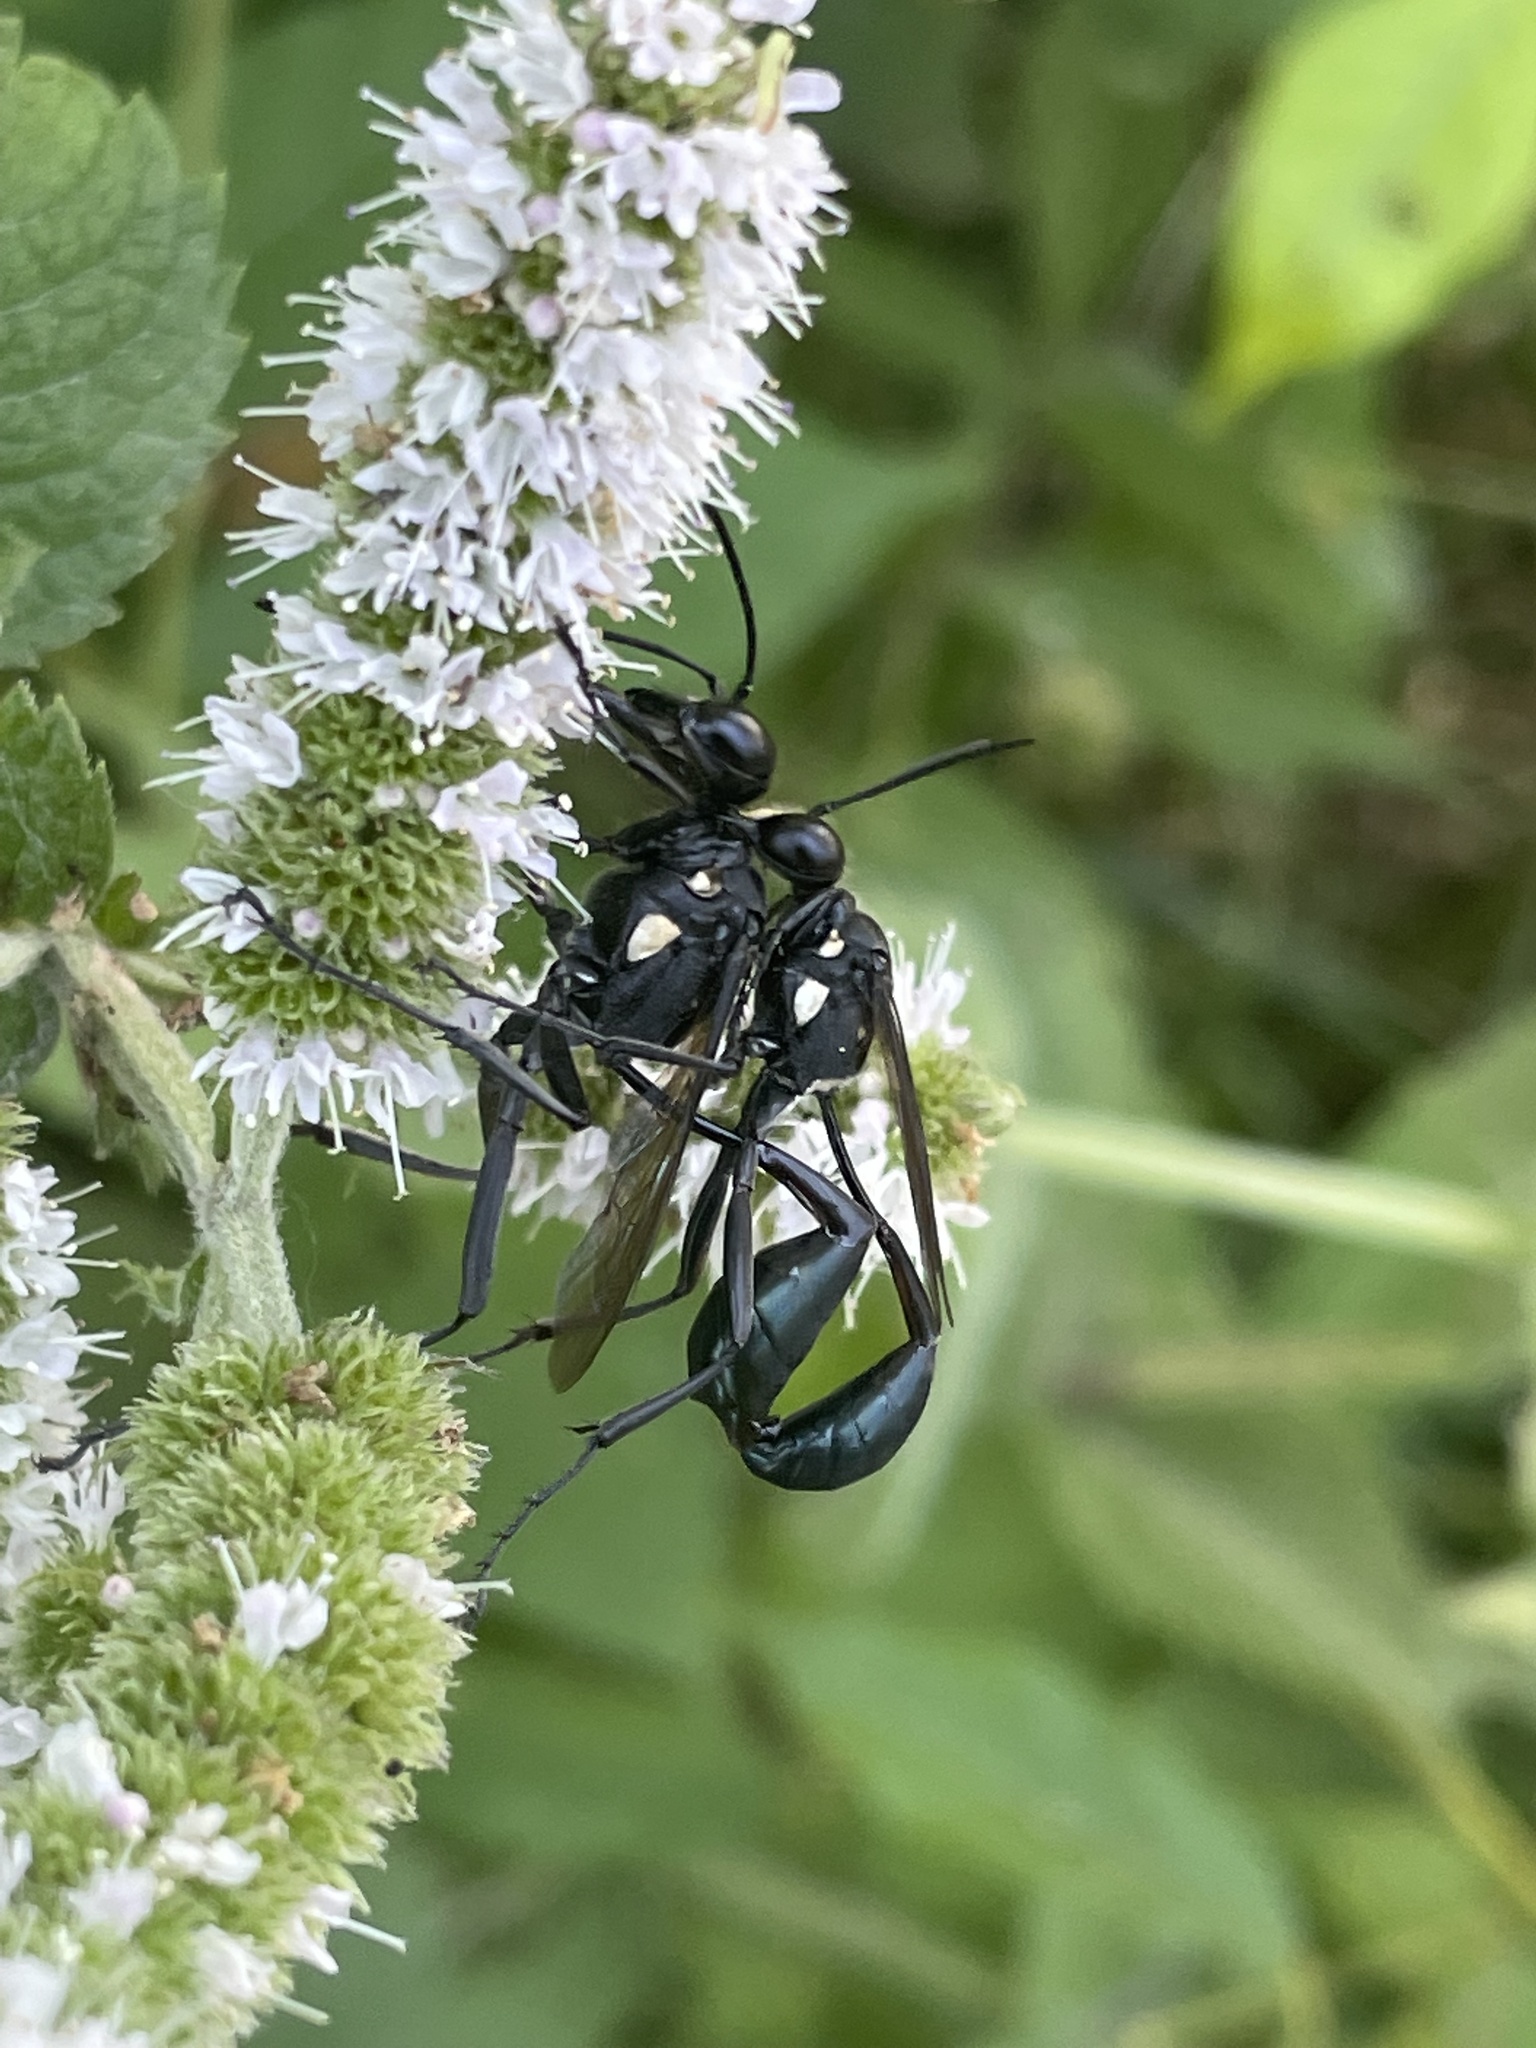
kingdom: Animalia
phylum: Arthropoda
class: Insecta
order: Hymenoptera
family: Sphecidae
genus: Eremnophila
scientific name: Eremnophila aureonotata
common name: Gold-marked thread-waisted wasp
